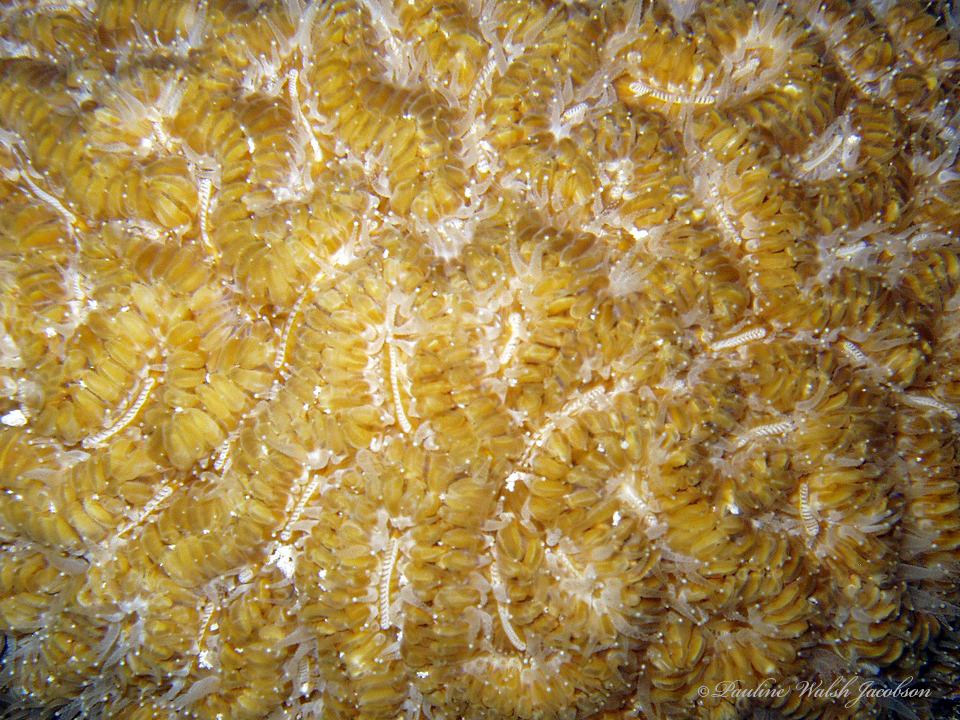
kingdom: Animalia
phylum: Cnidaria
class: Anthozoa
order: Scleractinia
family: Meandrinidae
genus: Meandrina
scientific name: Meandrina meandrites
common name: Maze coral
